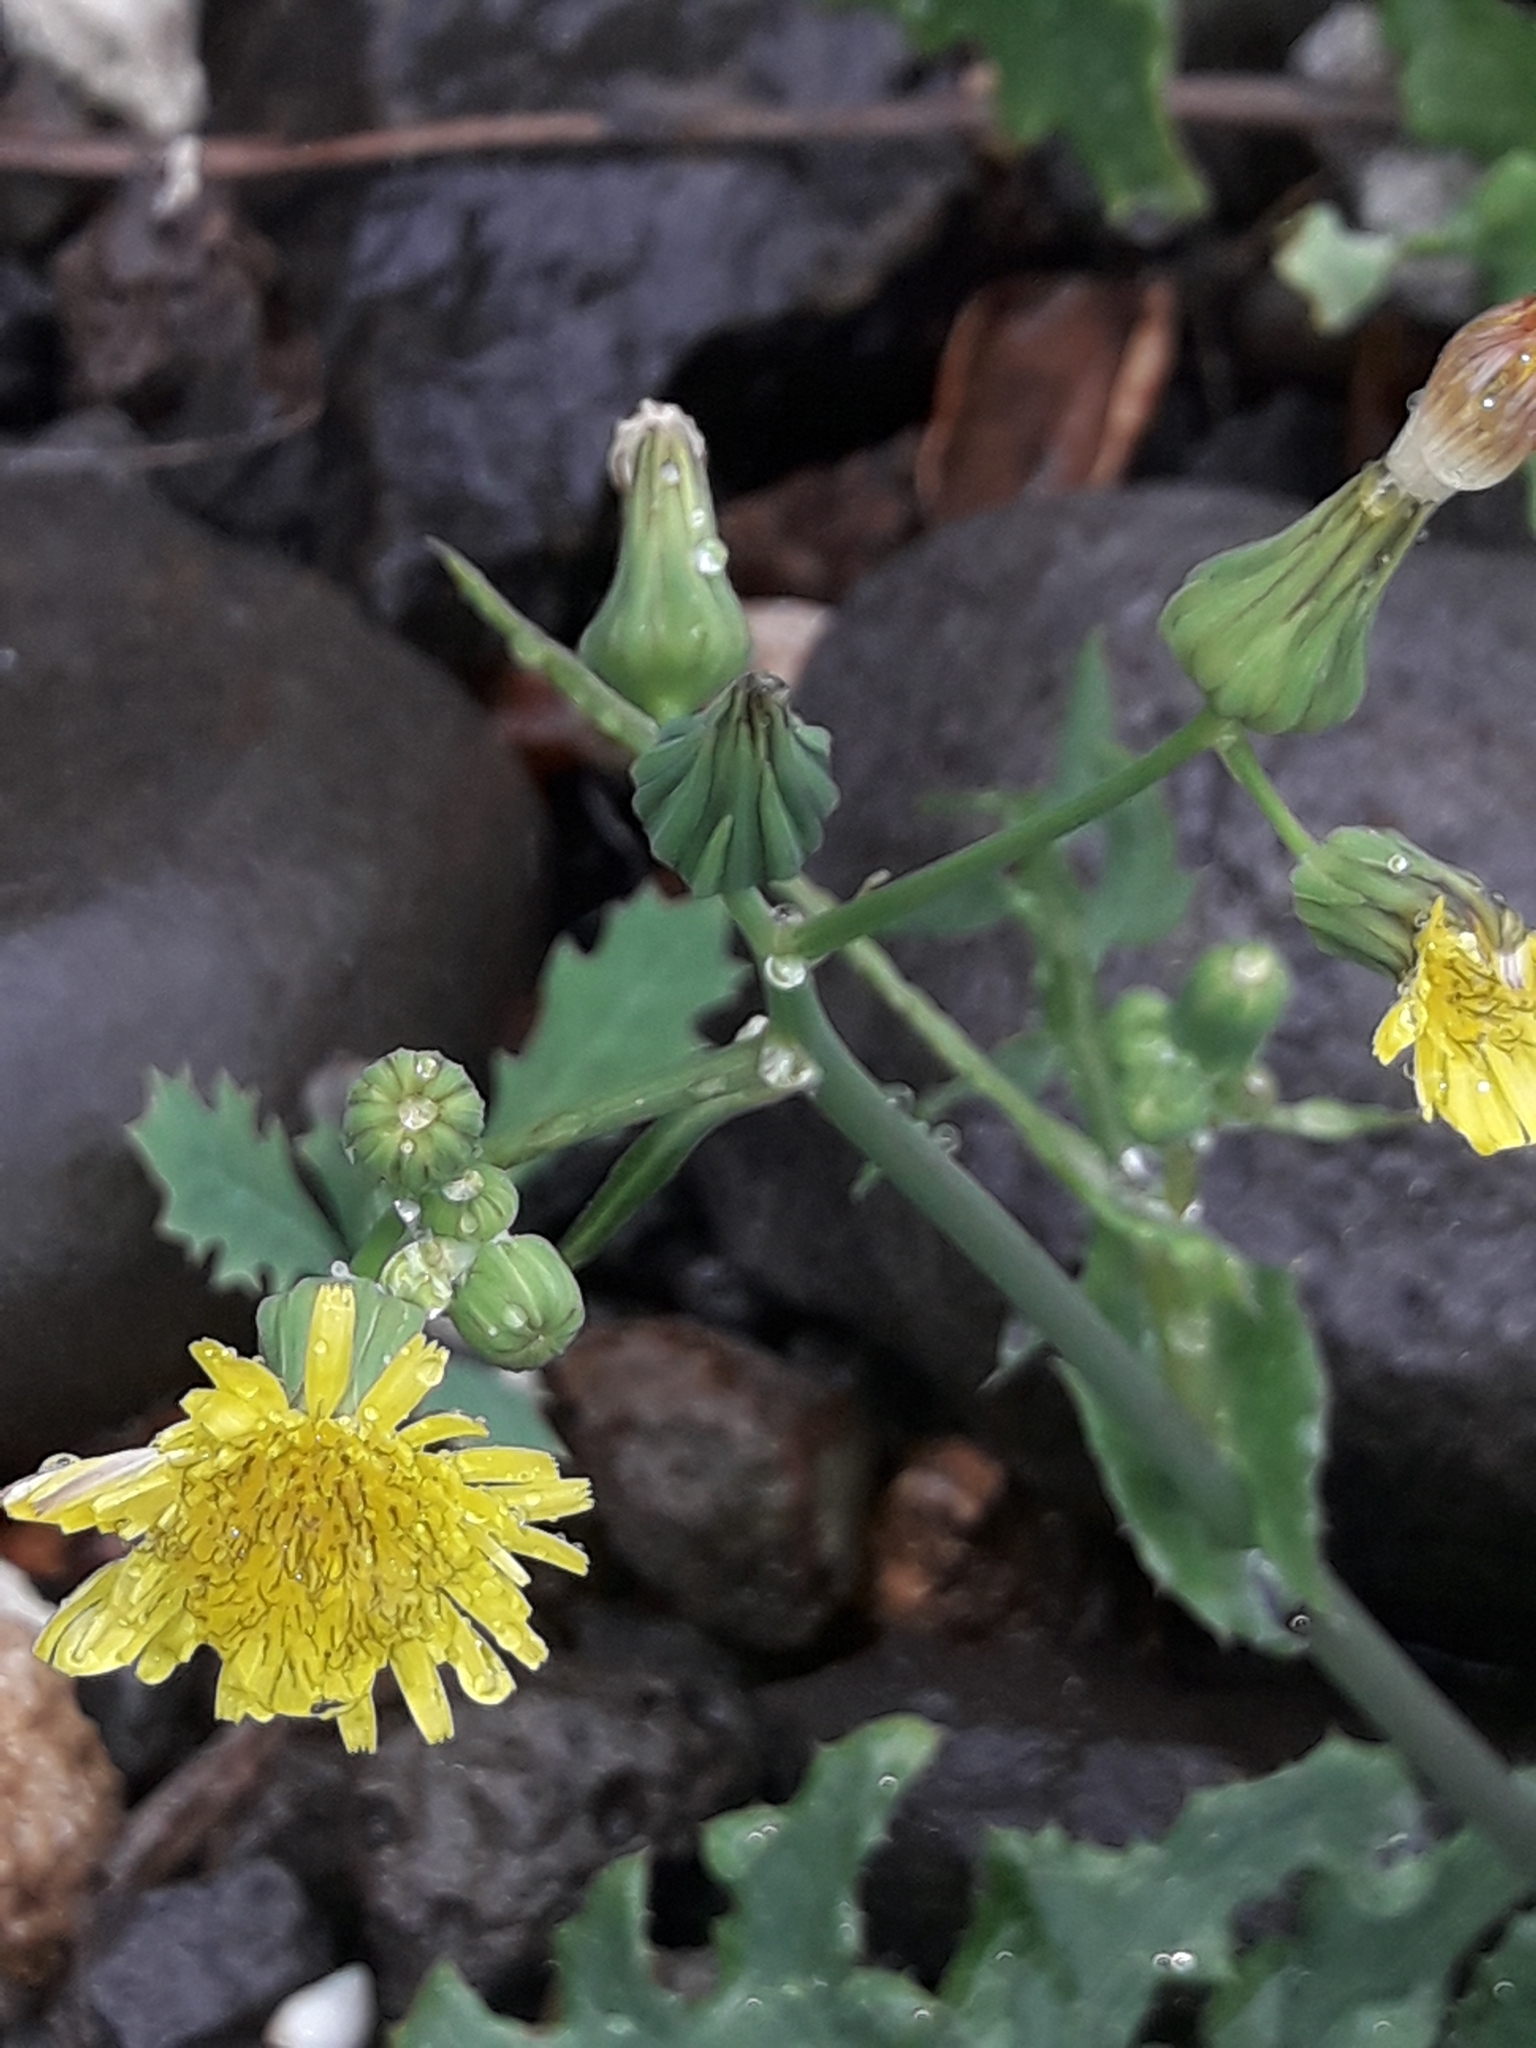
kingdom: Plantae
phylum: Tracheophyta
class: Magnoliopsida
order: Asterales
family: Asteraceae
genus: Sonchus
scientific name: Sonchus oleraceus
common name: Common sowthistle
